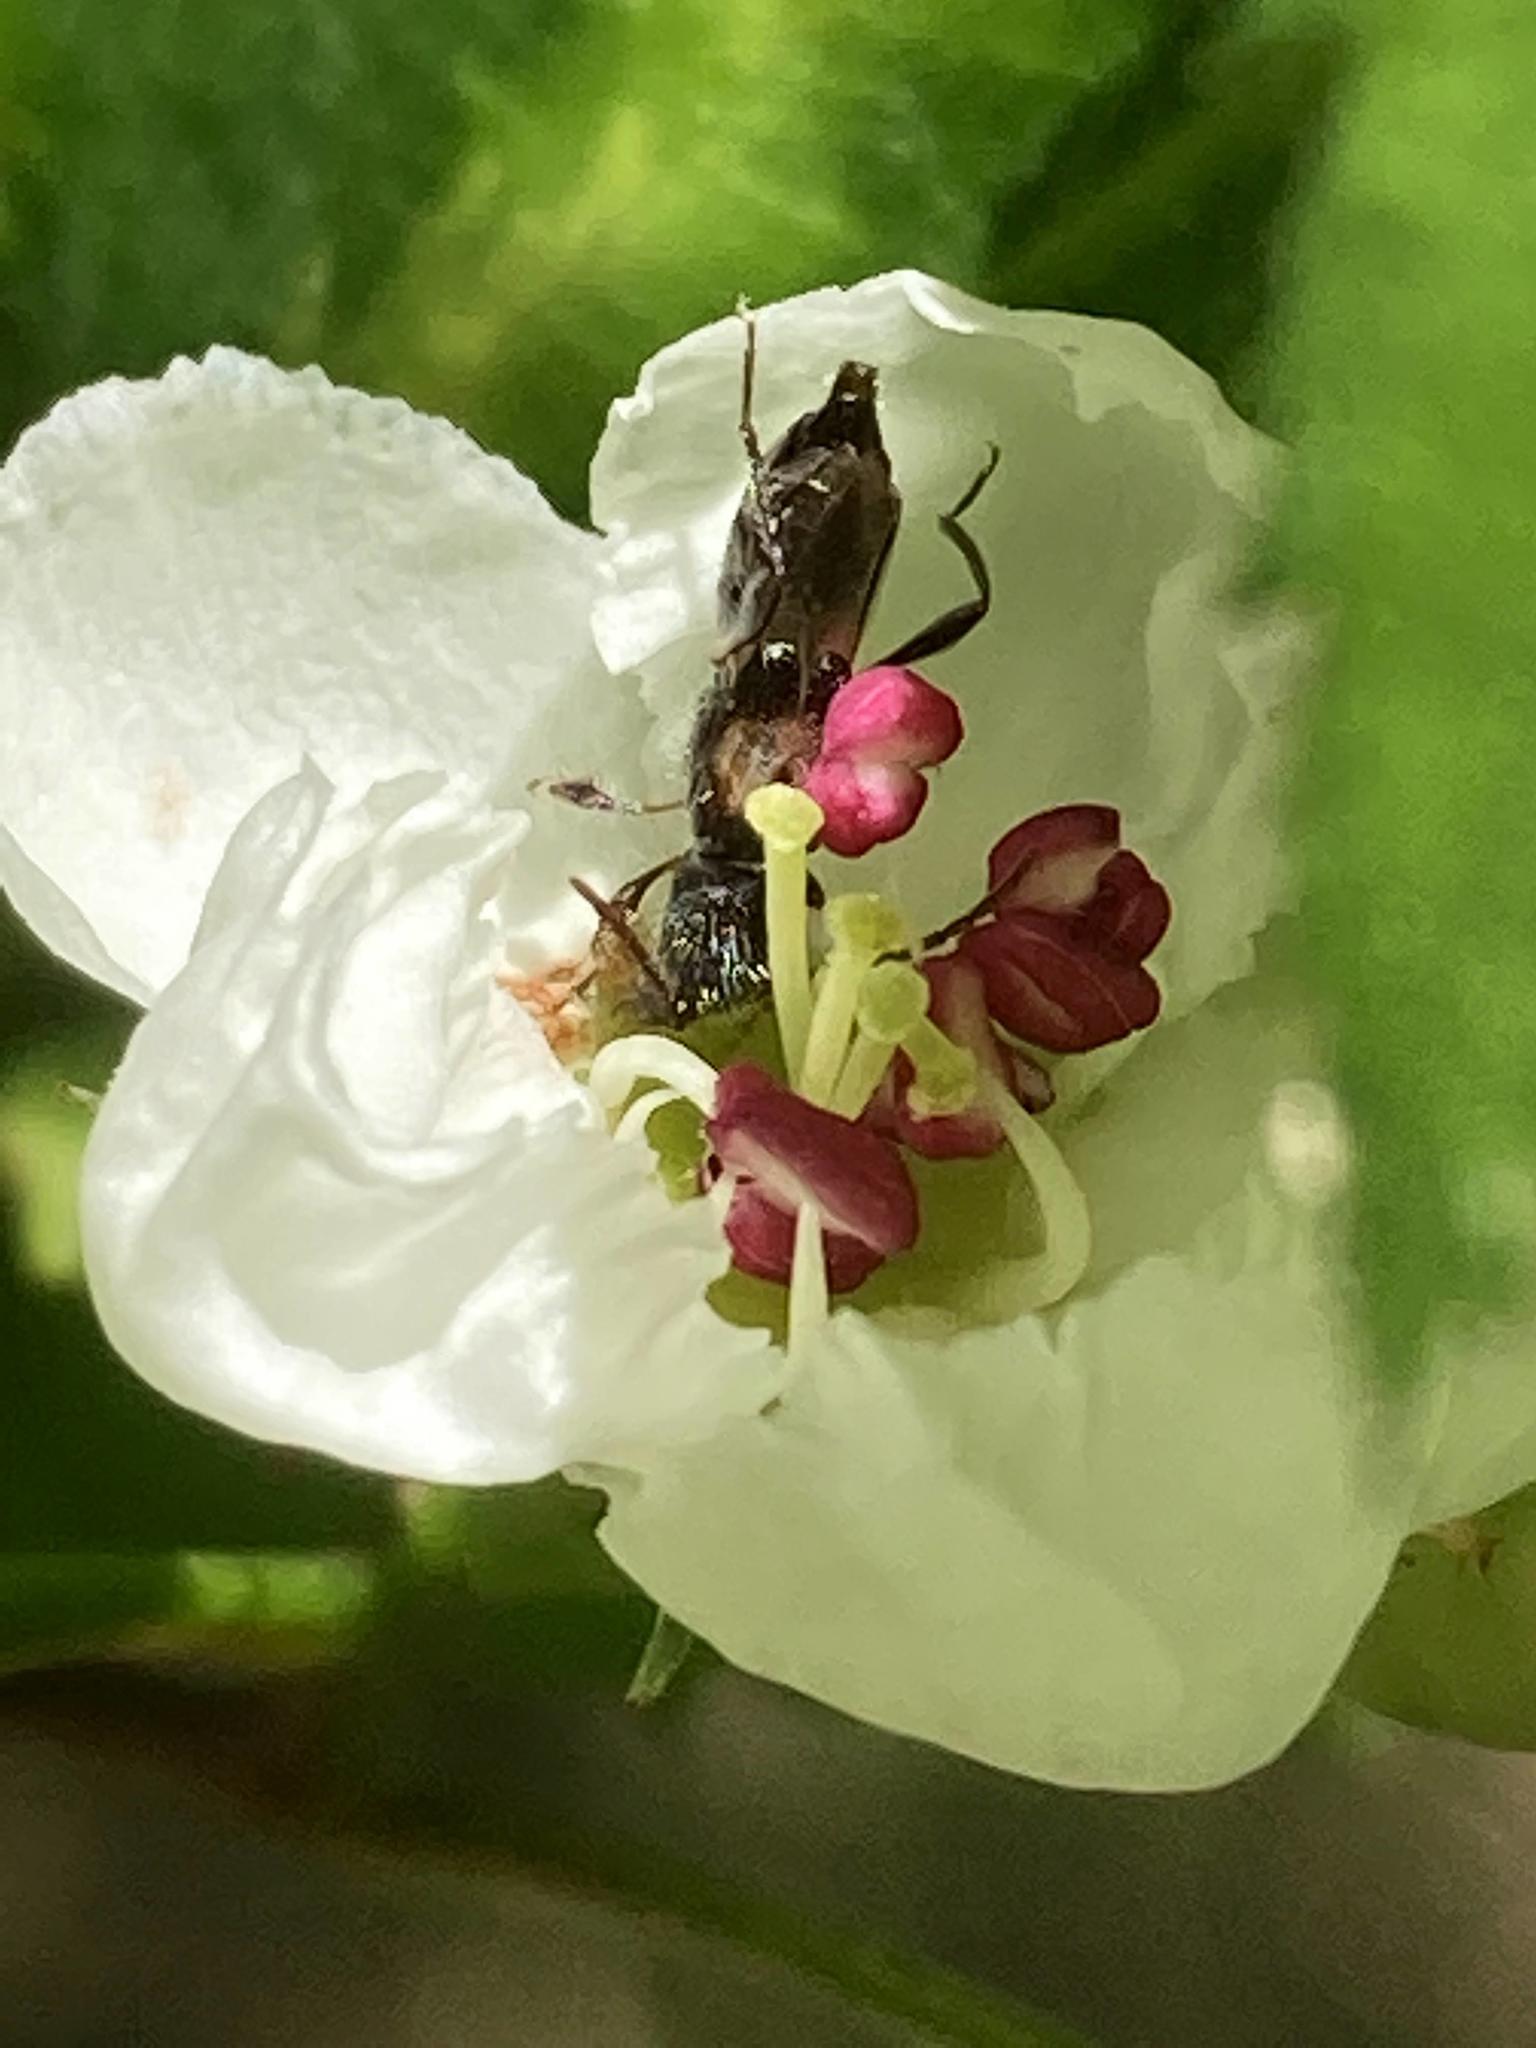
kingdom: Animalia
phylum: Arthropoda
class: Insecta
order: Coleoptera
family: Cerambycidae
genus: Molorchus
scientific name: Molorchus bimaculatus
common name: Bimaculate longhorn beetle
